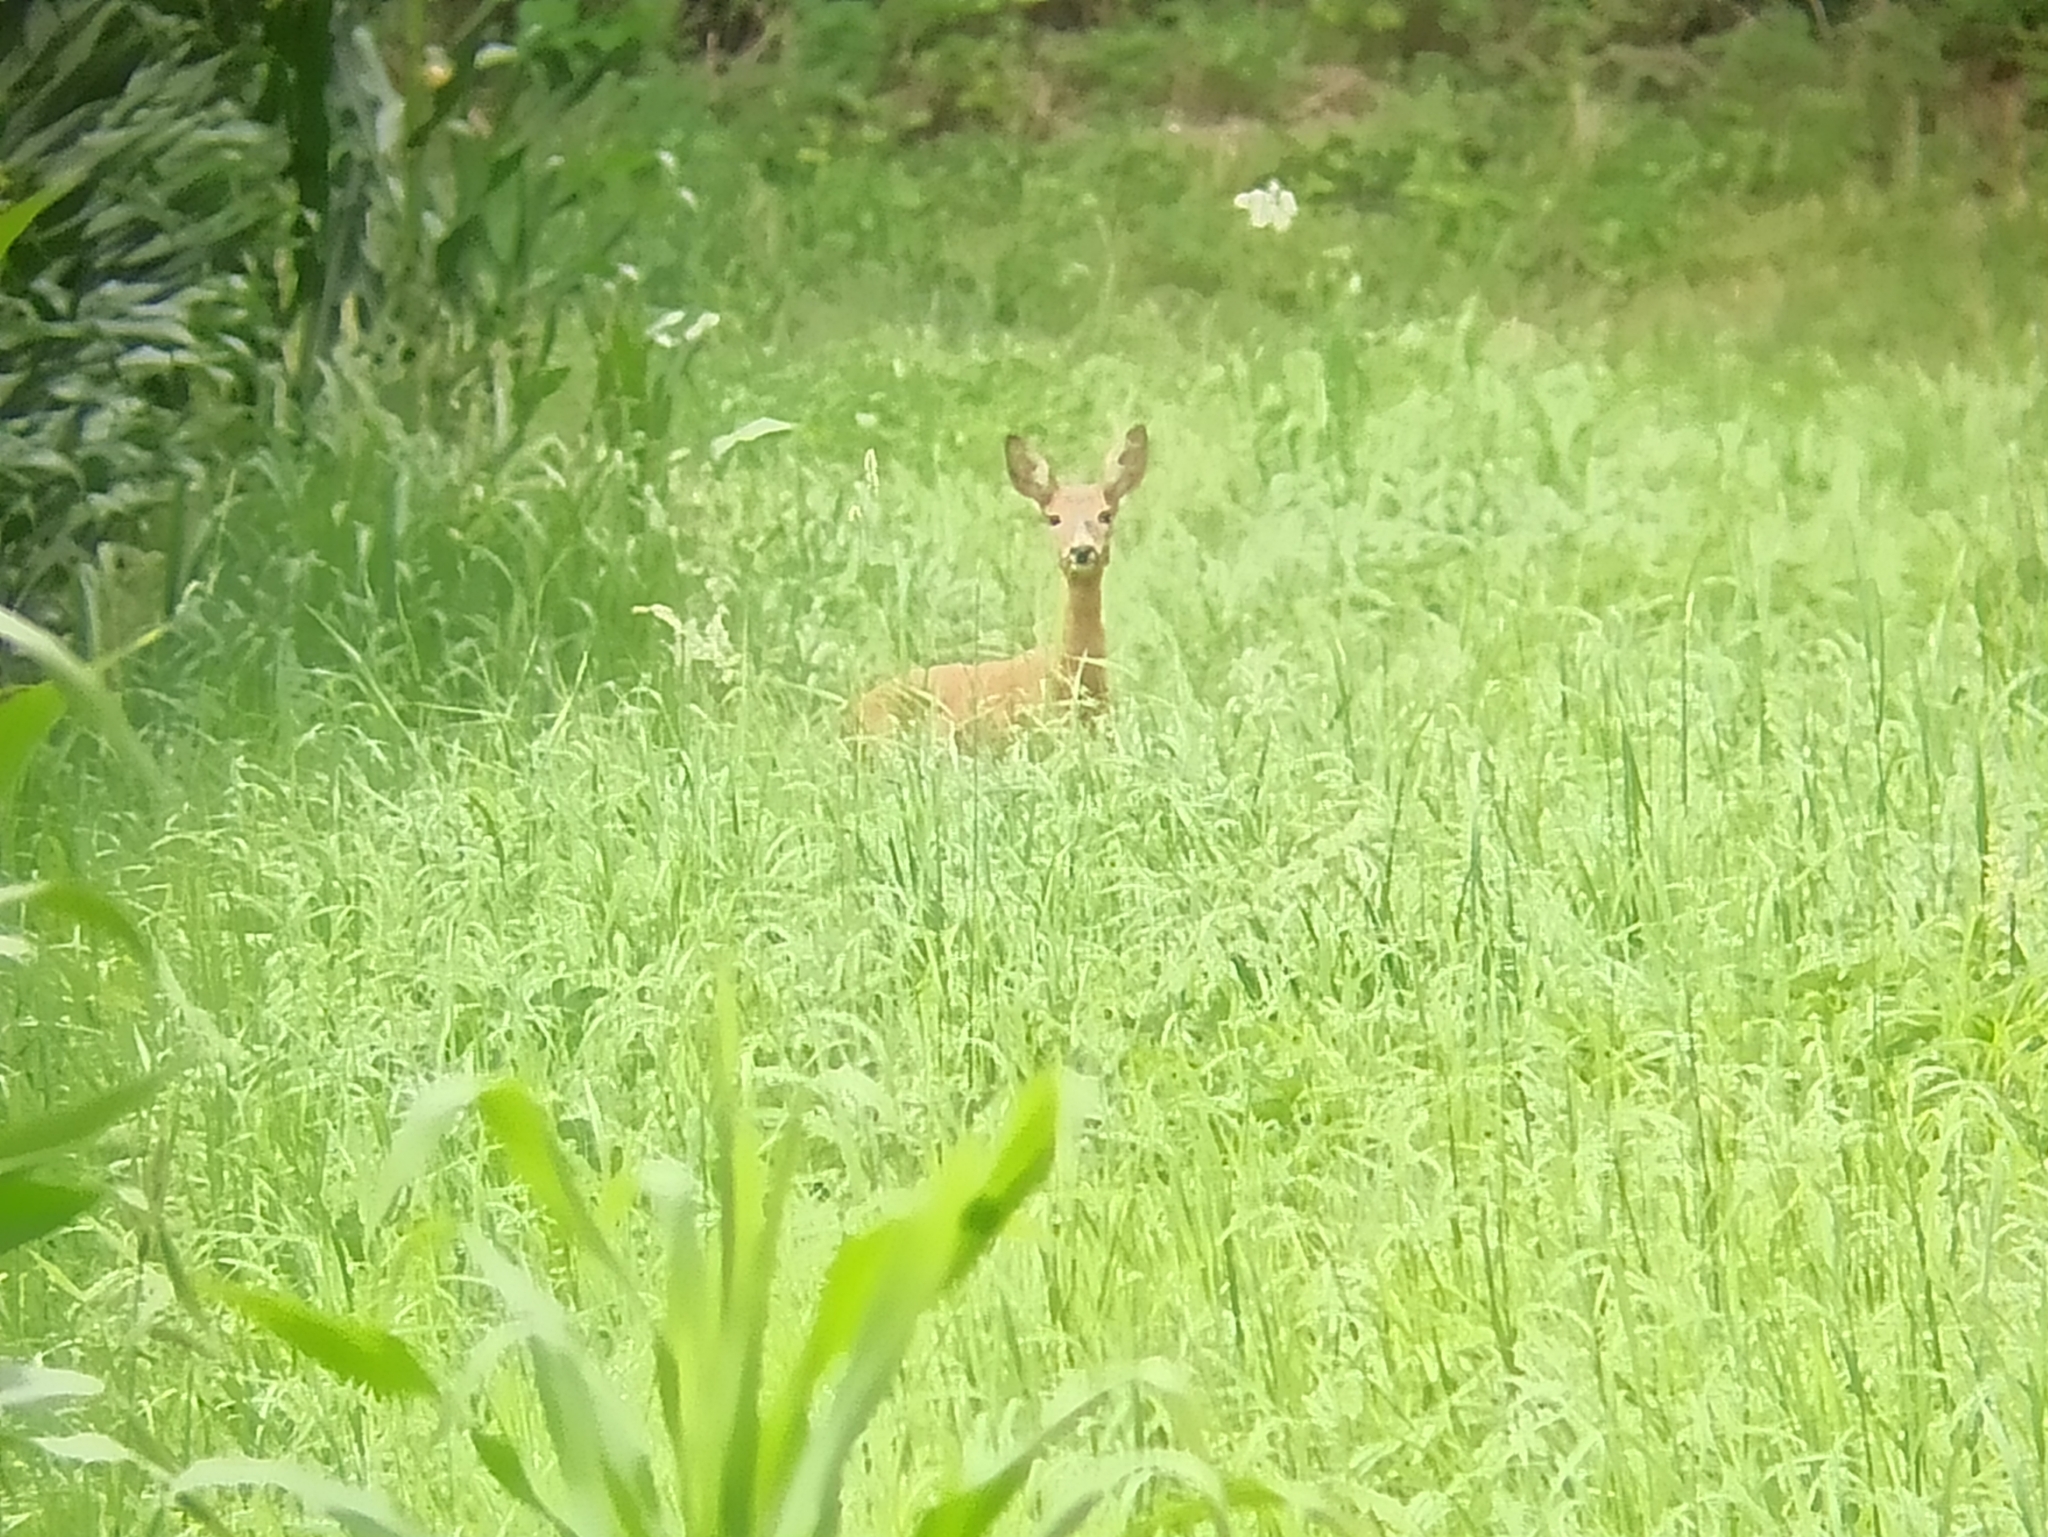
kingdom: Animalia
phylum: Chordata
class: Mammalia
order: Artiodactyla
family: Cervidae
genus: Capreolus
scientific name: Capreolus capreolus
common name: Western roe deer
